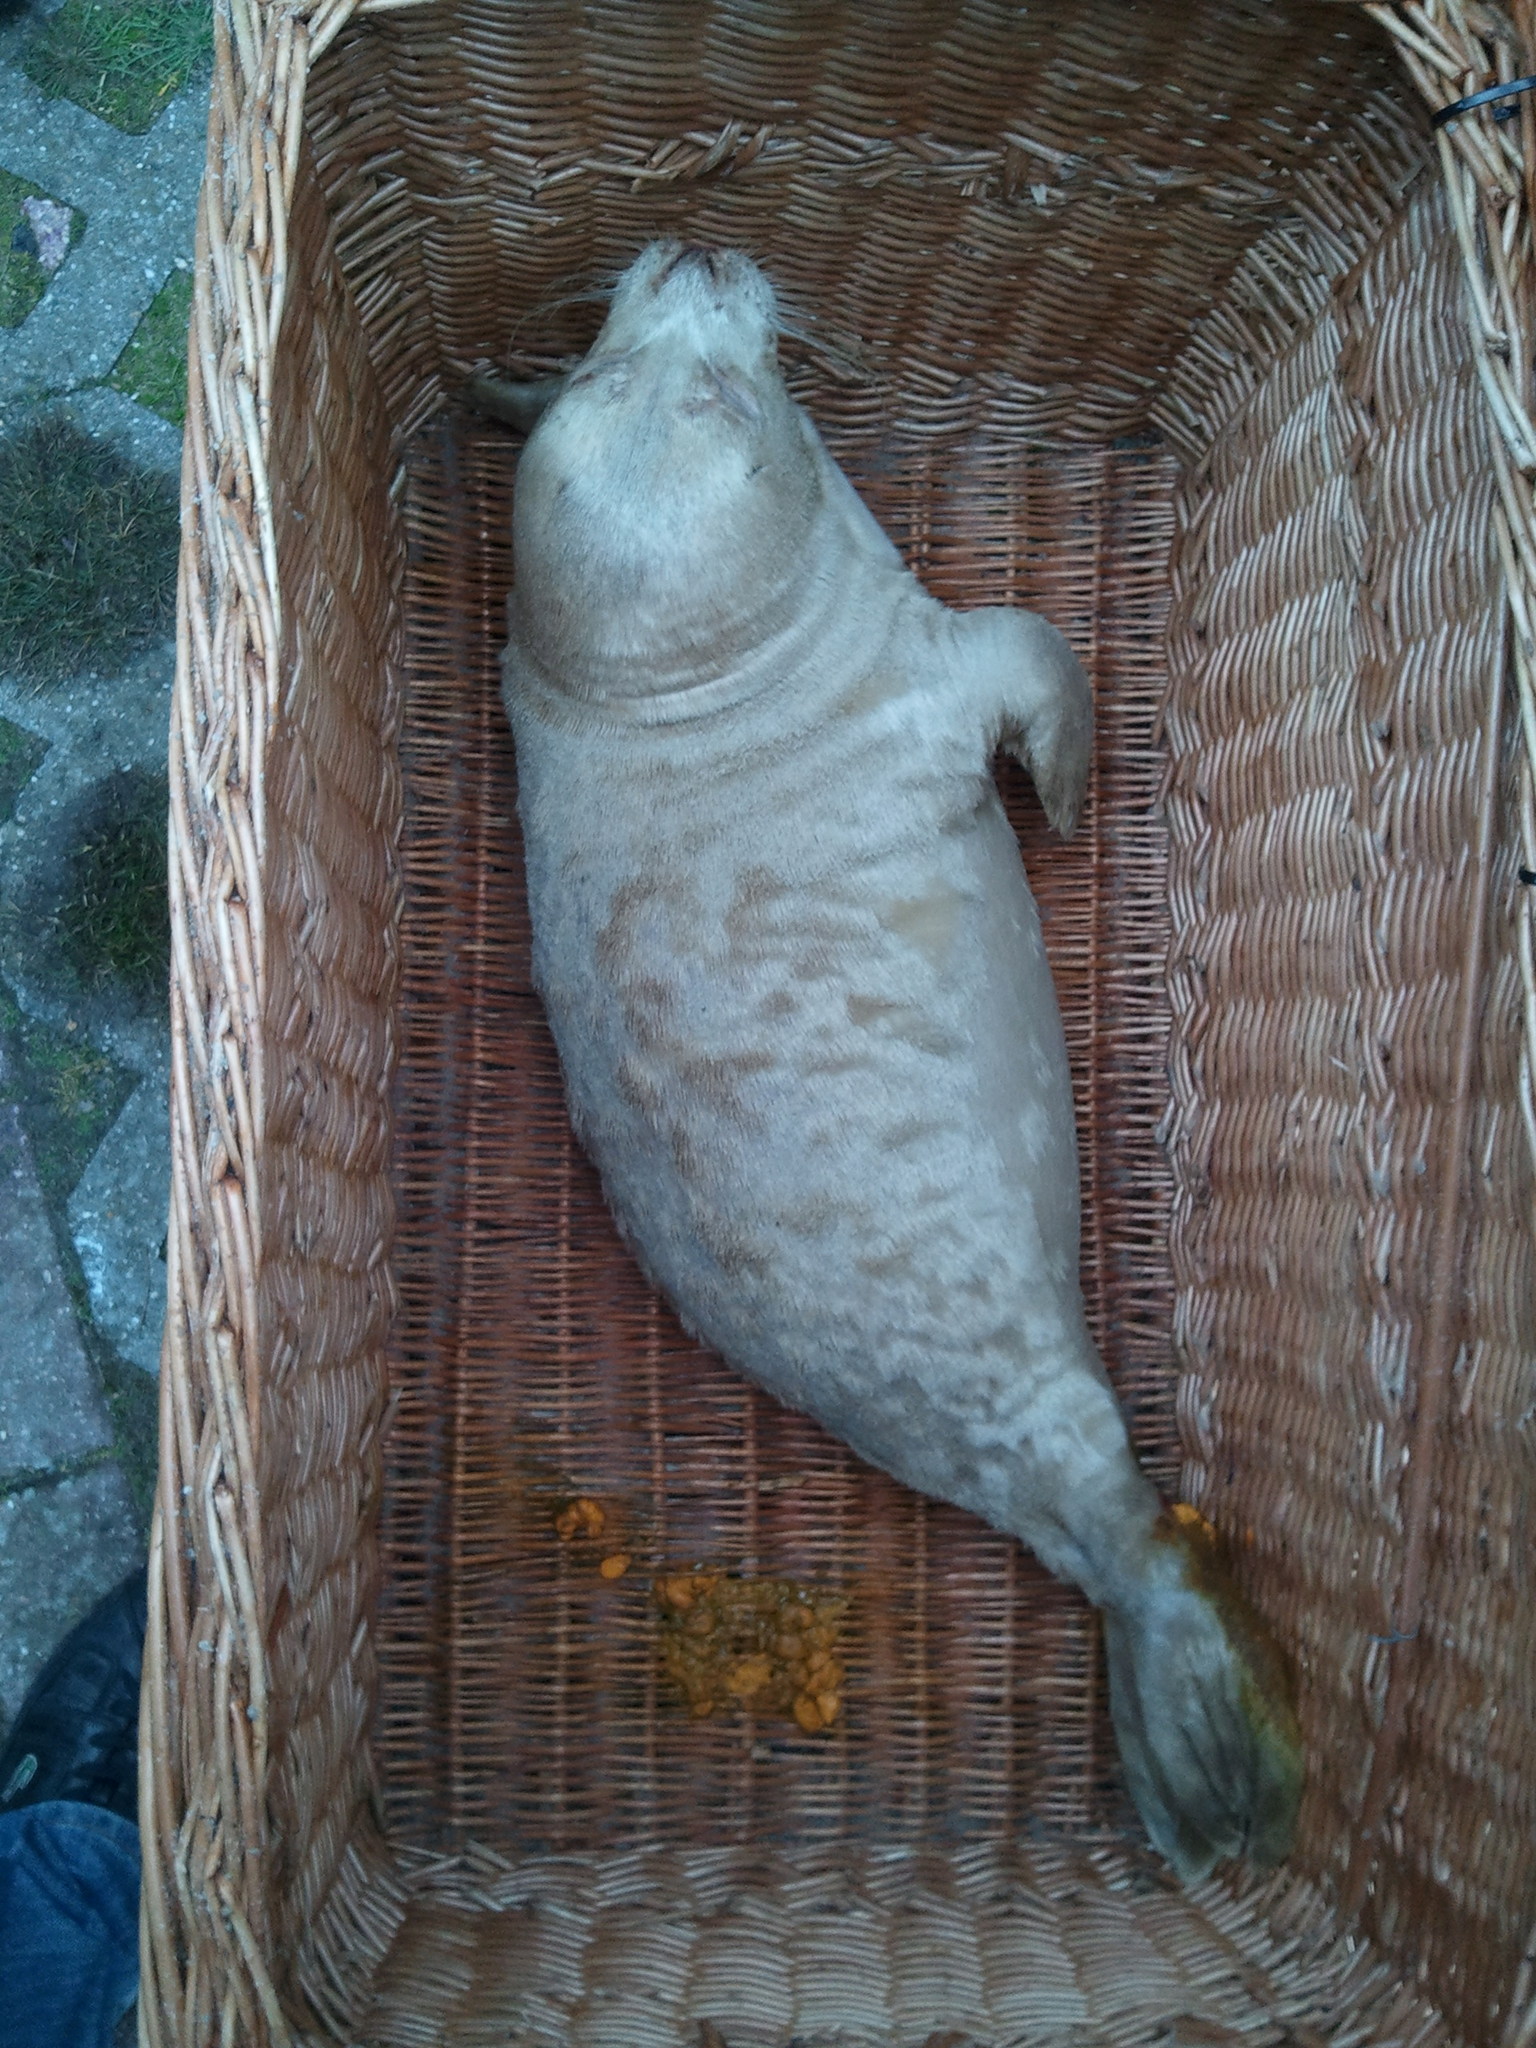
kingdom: Animalia
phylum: Chordata
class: Mammalia
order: Carnivora
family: Phocidae
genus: Phoca
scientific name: Phoca vitulina
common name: Harbor seal
